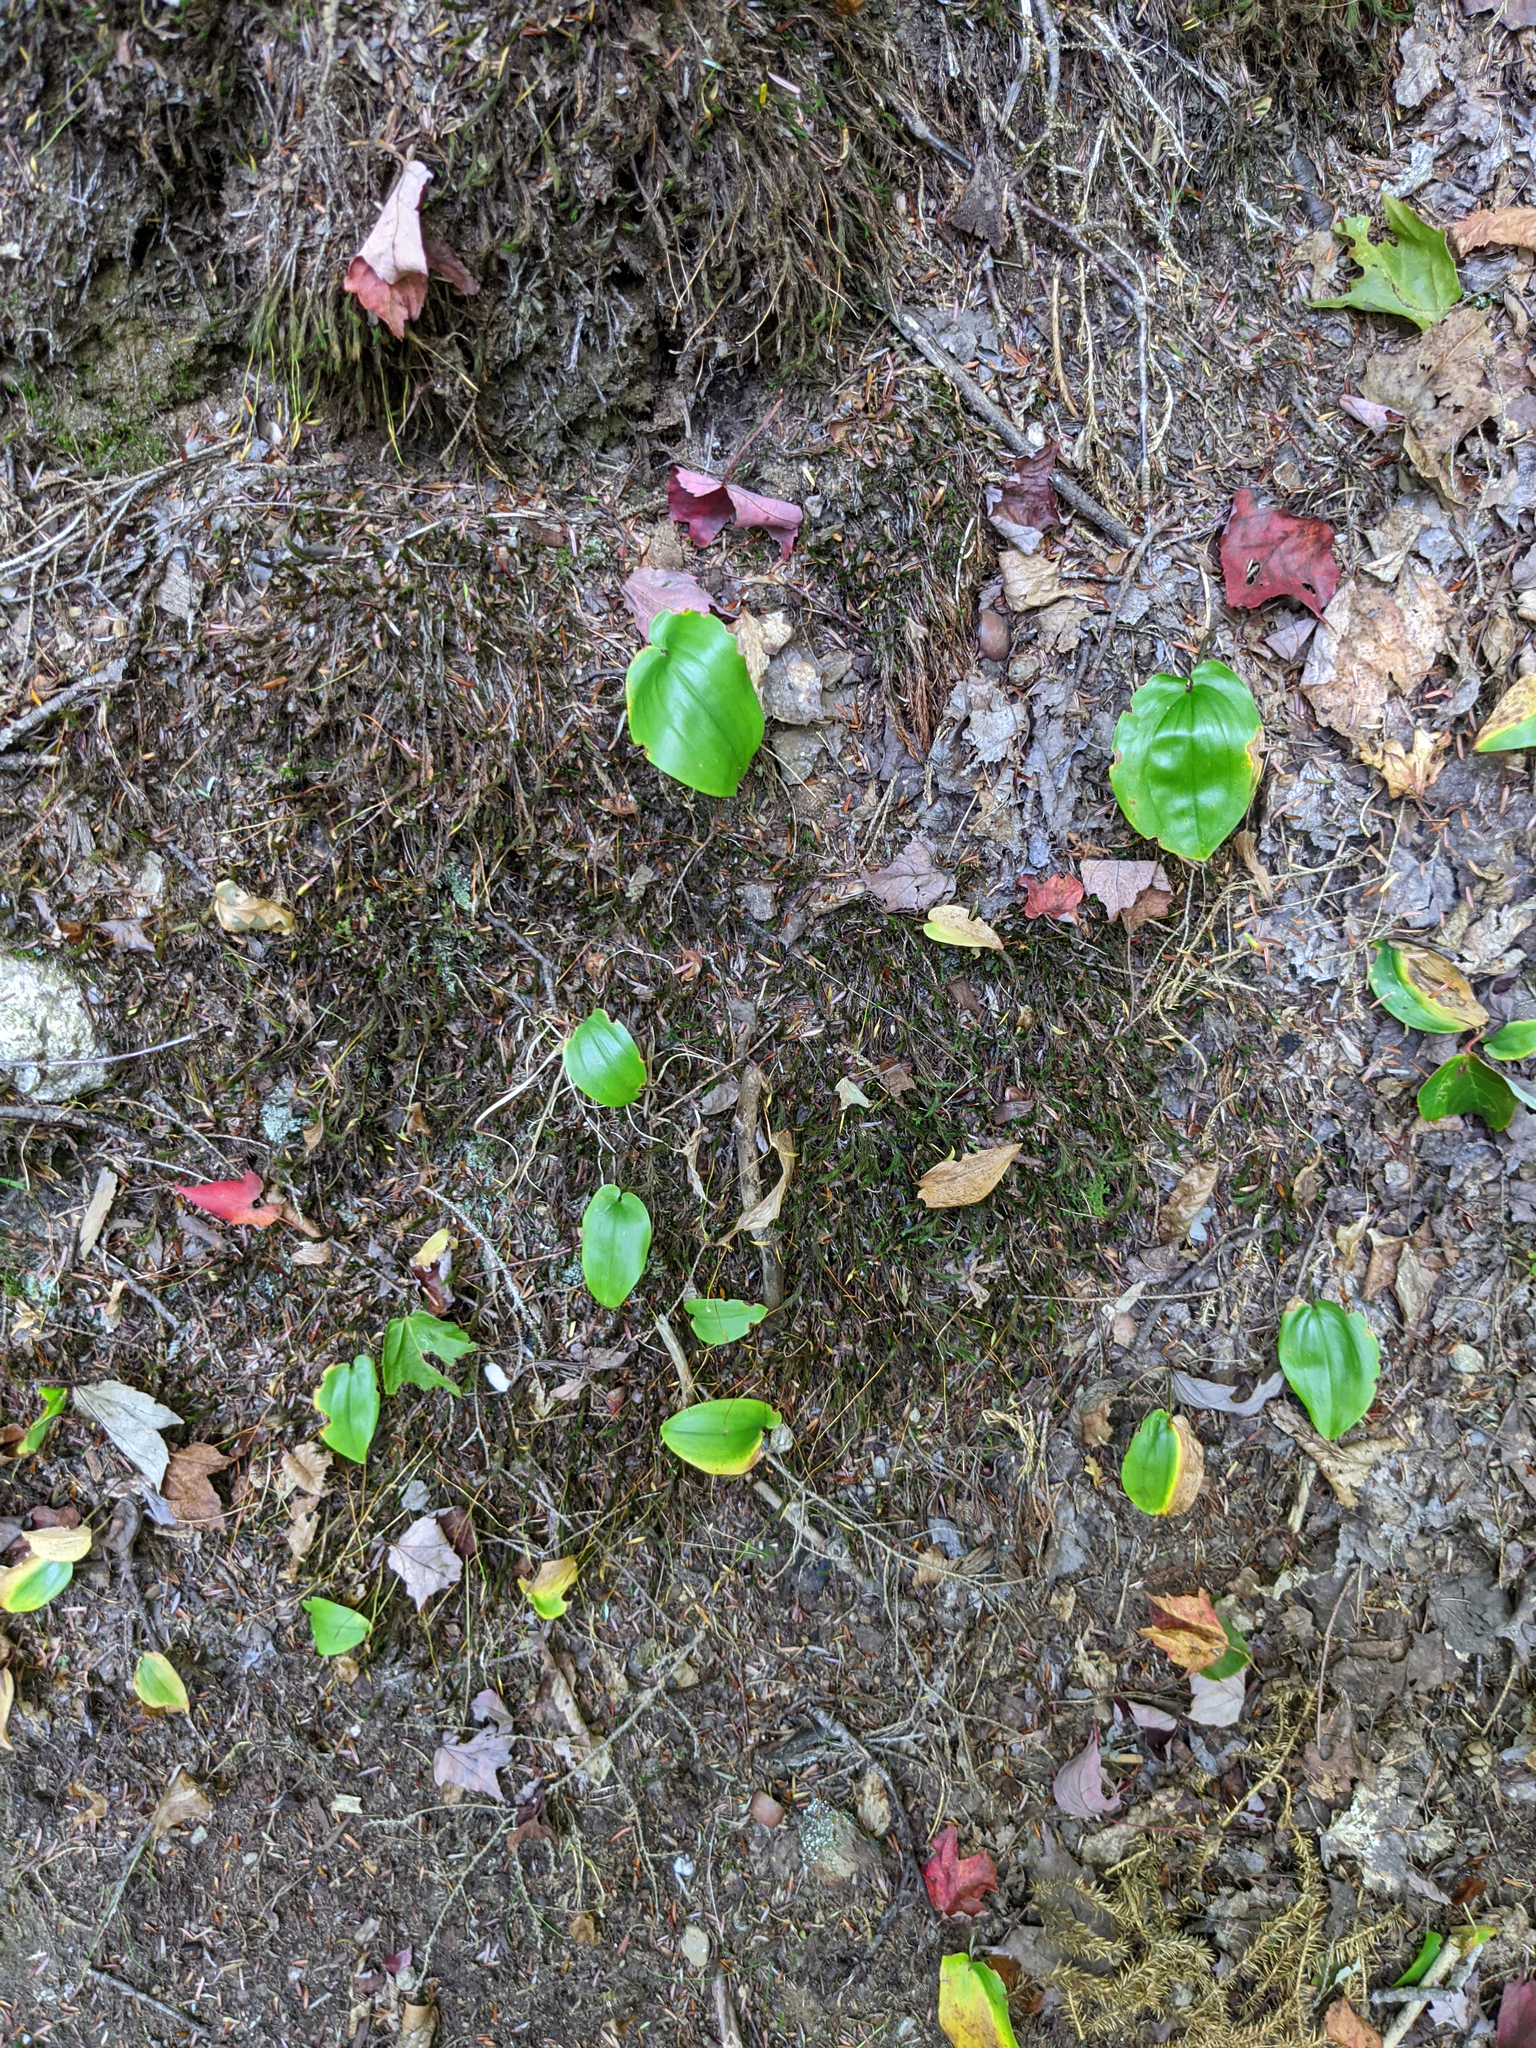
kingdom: Plantae
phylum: Tracheophyta
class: Liliopsida
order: Asparagales
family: Asparagaceae
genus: Maianthemum
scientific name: Maianthemum canadense
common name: False lily-of-the-valley
